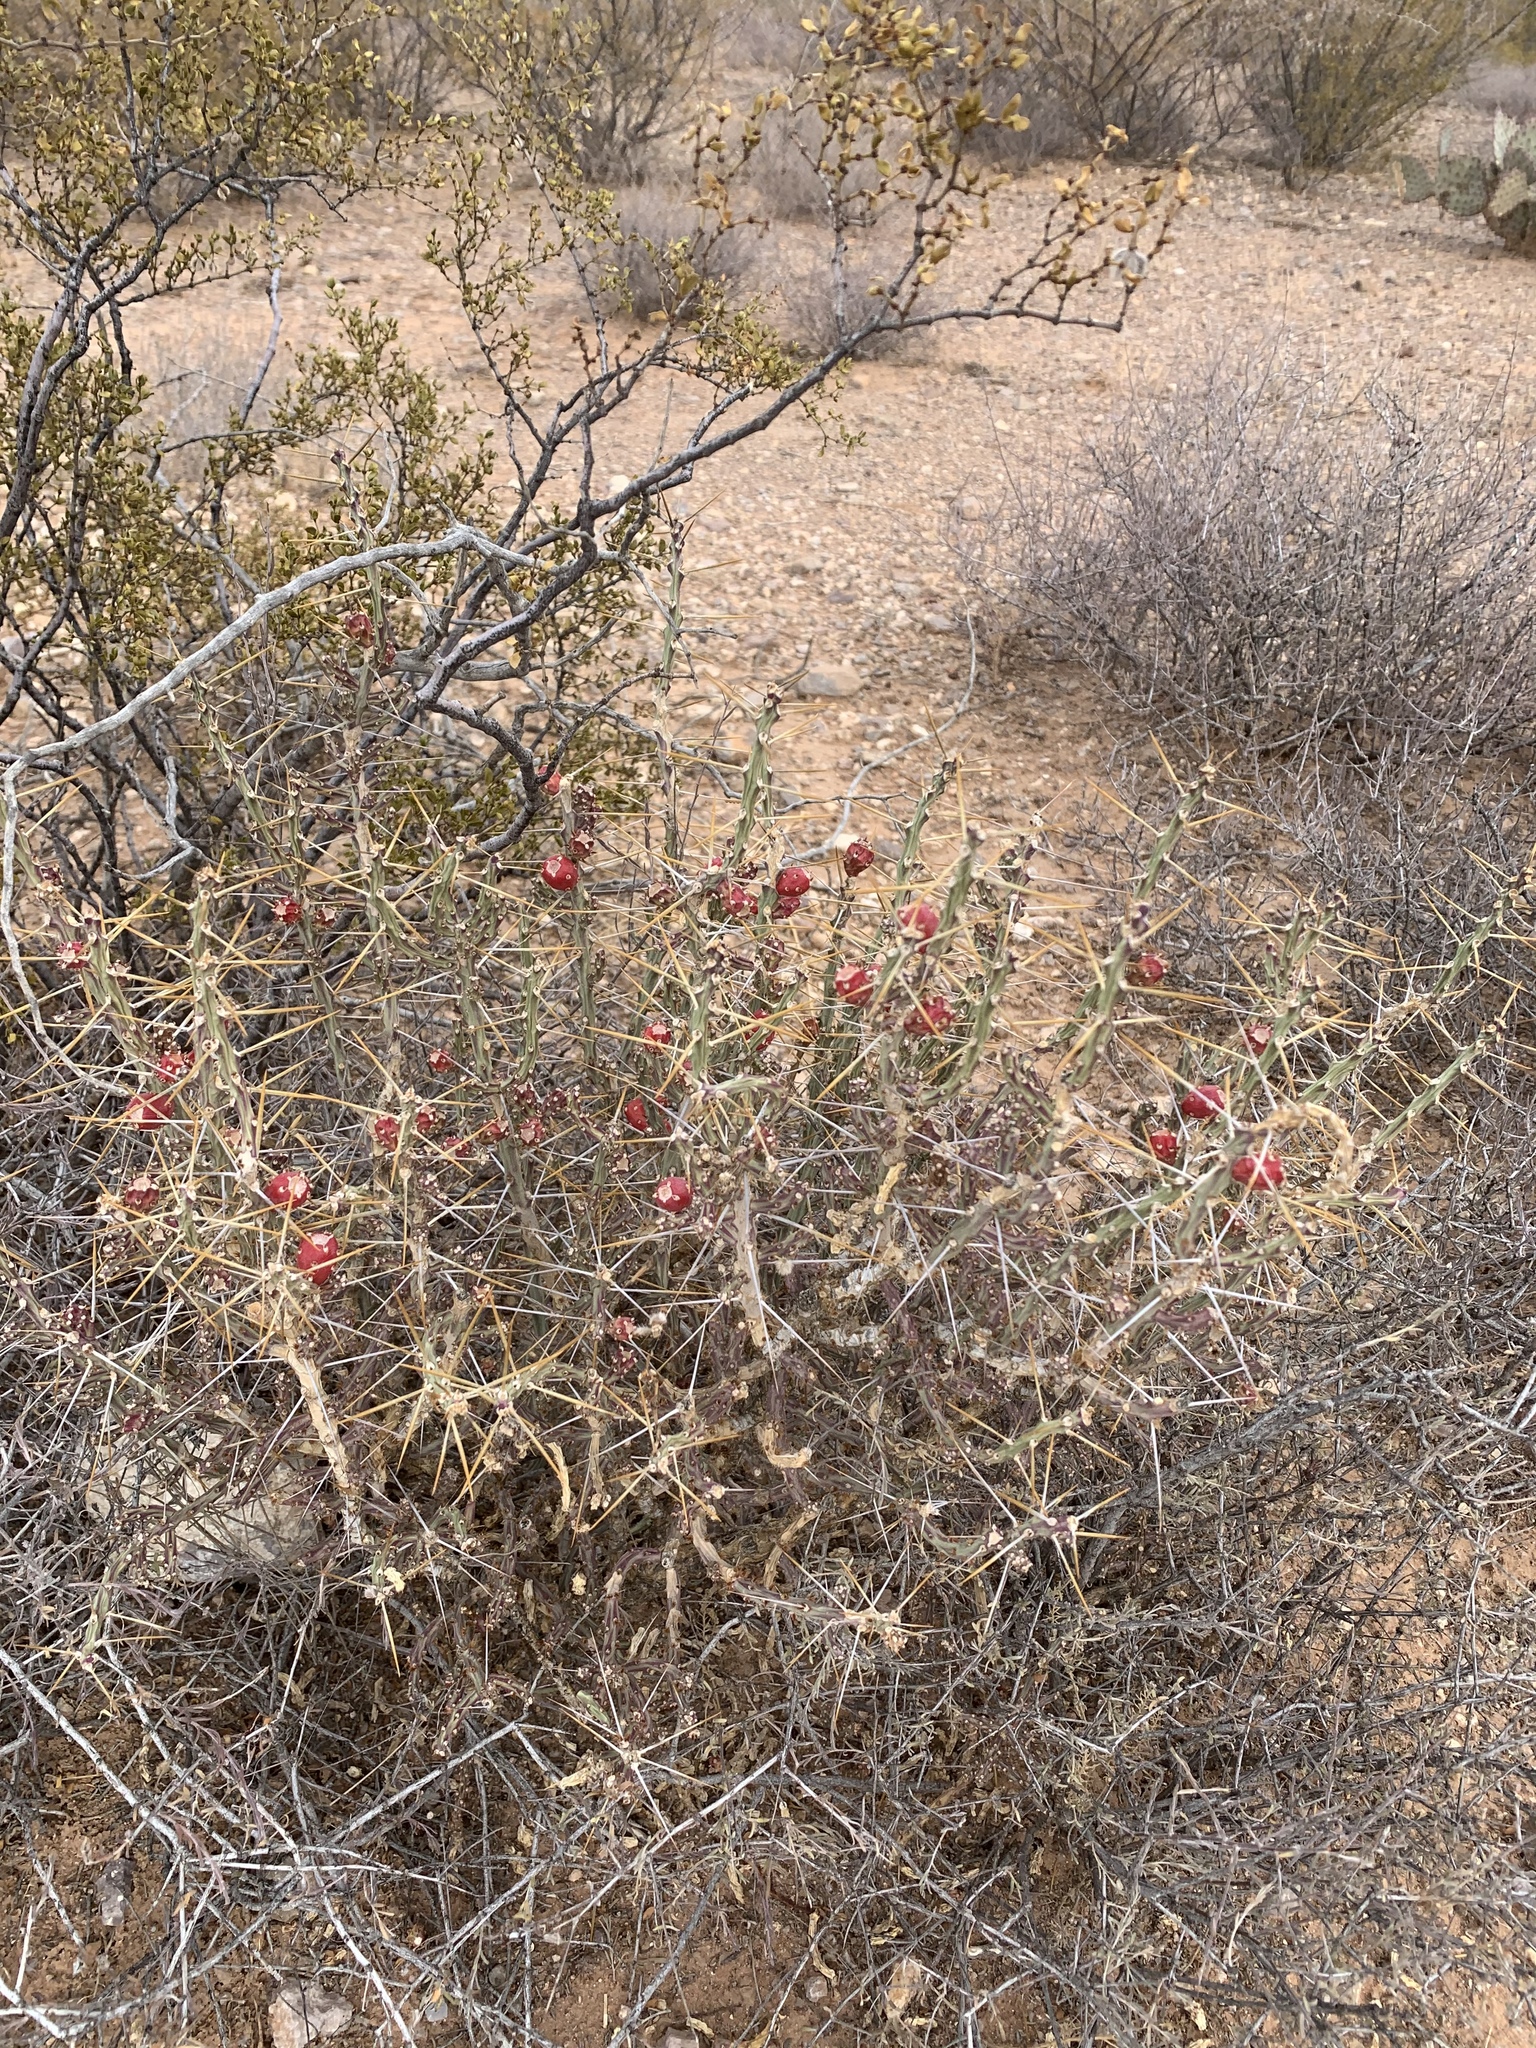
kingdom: Plantae
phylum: Tracheophyta
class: Magnoliopsida
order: Caryophyllales
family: Cactaceae
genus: Cylindropuntia
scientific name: Cylindropuntia leptocaulis
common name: Christmas cactus
